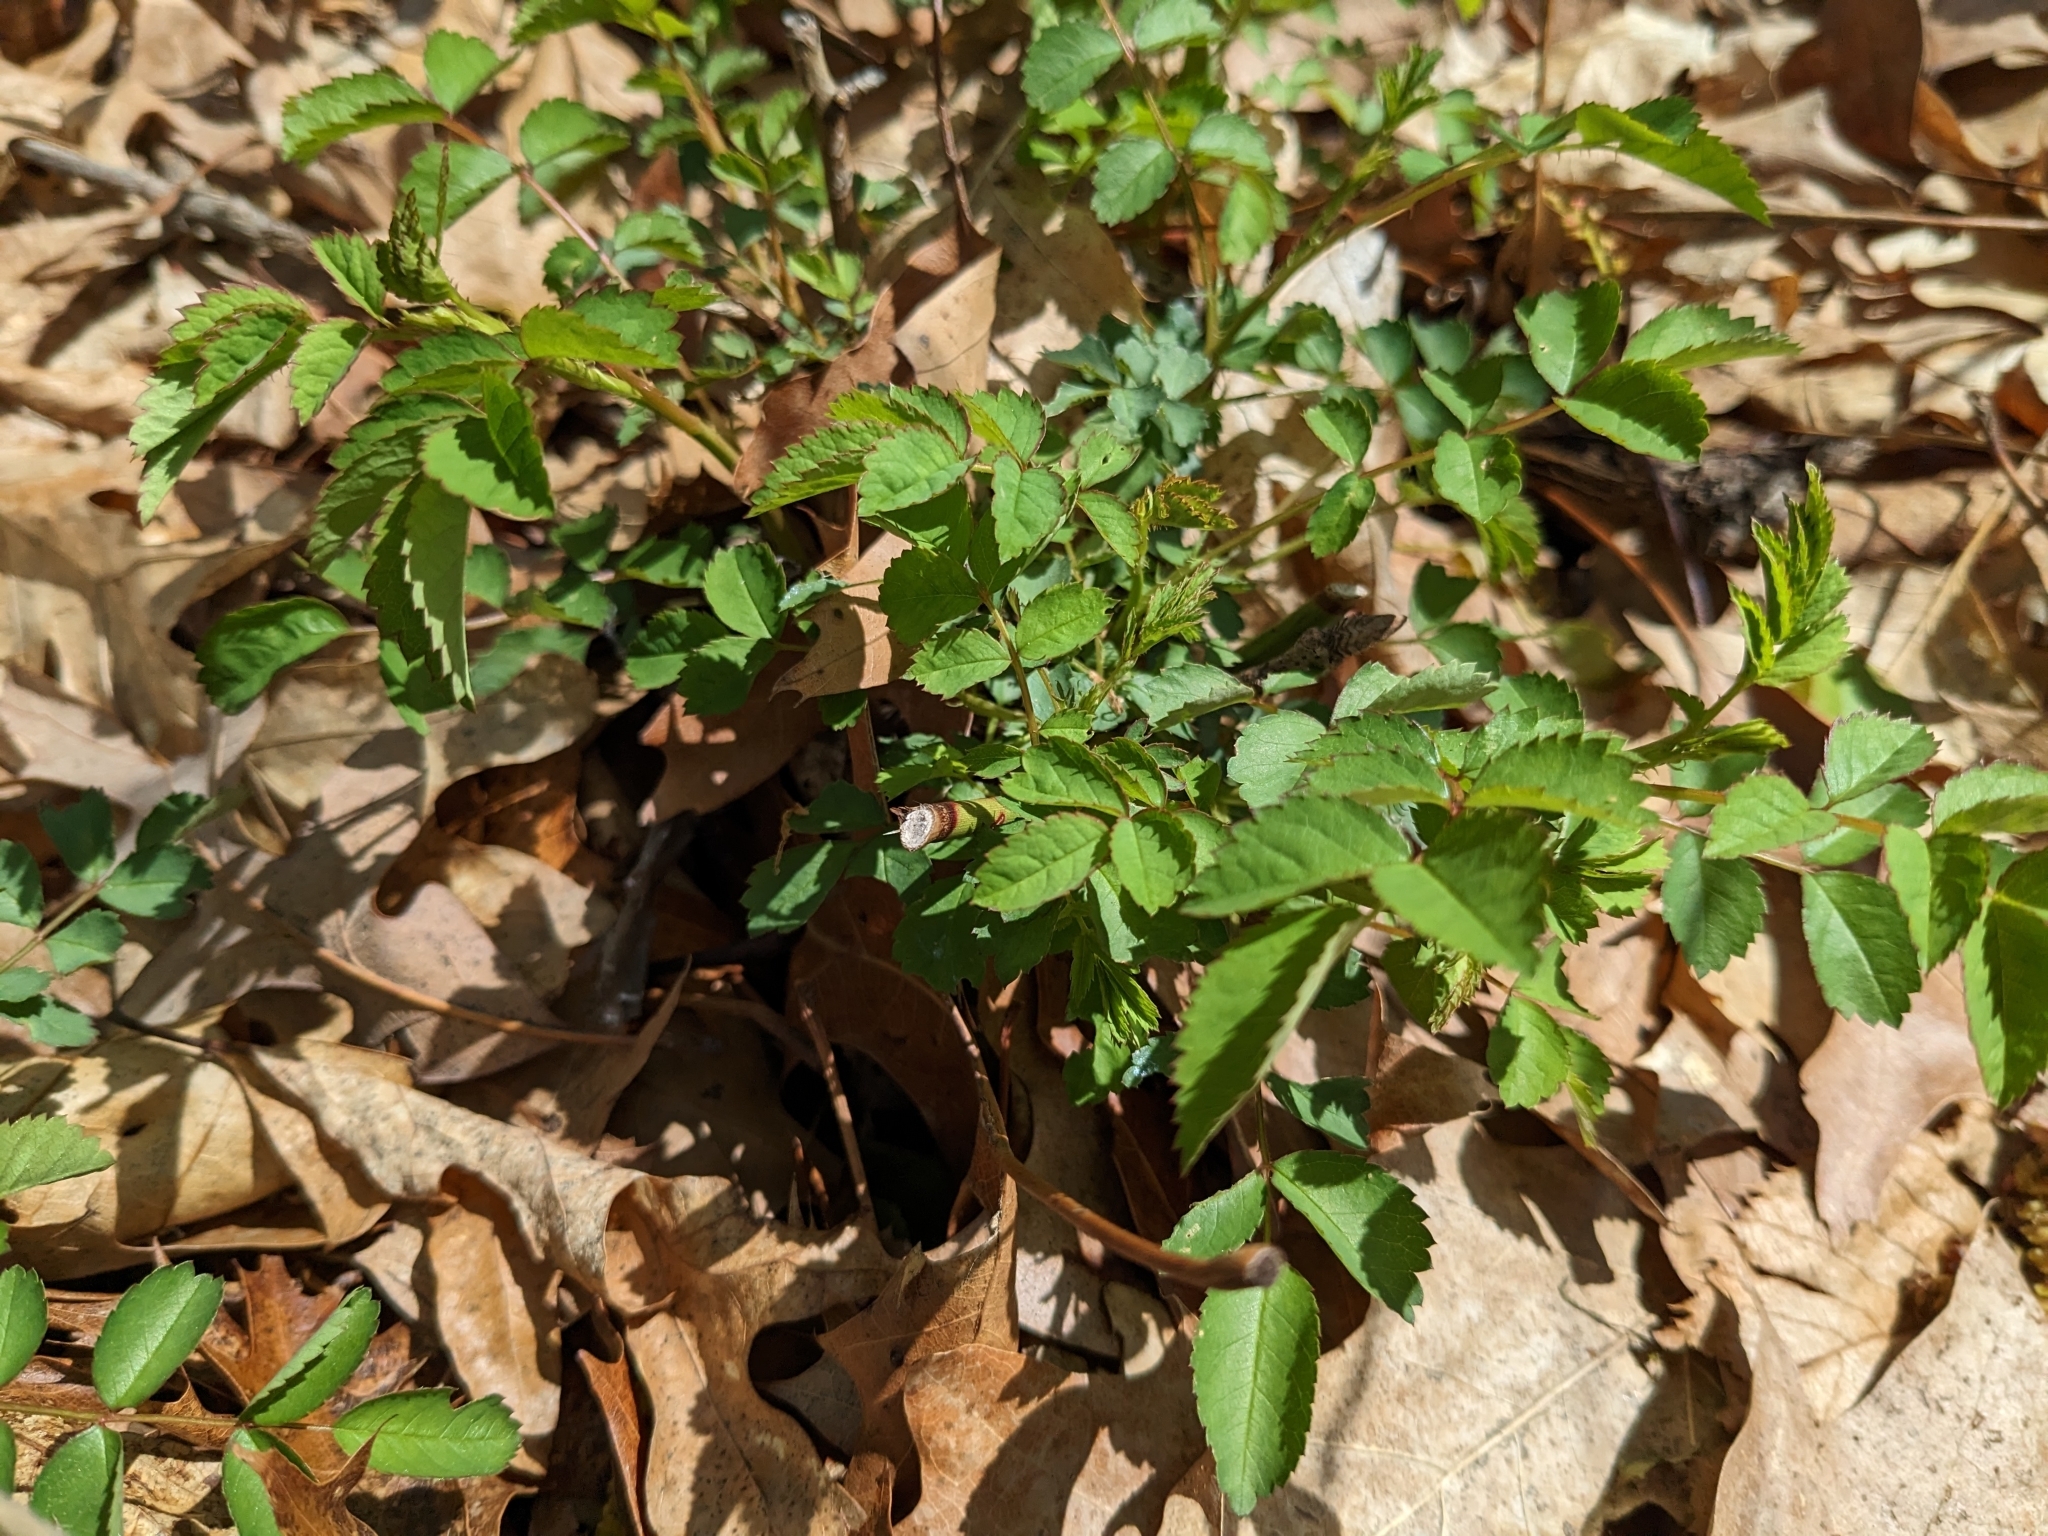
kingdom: Plantae
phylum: Tracheophyta
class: Magnoliopsida
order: Rosales
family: Rosaceae
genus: Rosa
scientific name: Rosa multiflora
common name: Multiflora rose
